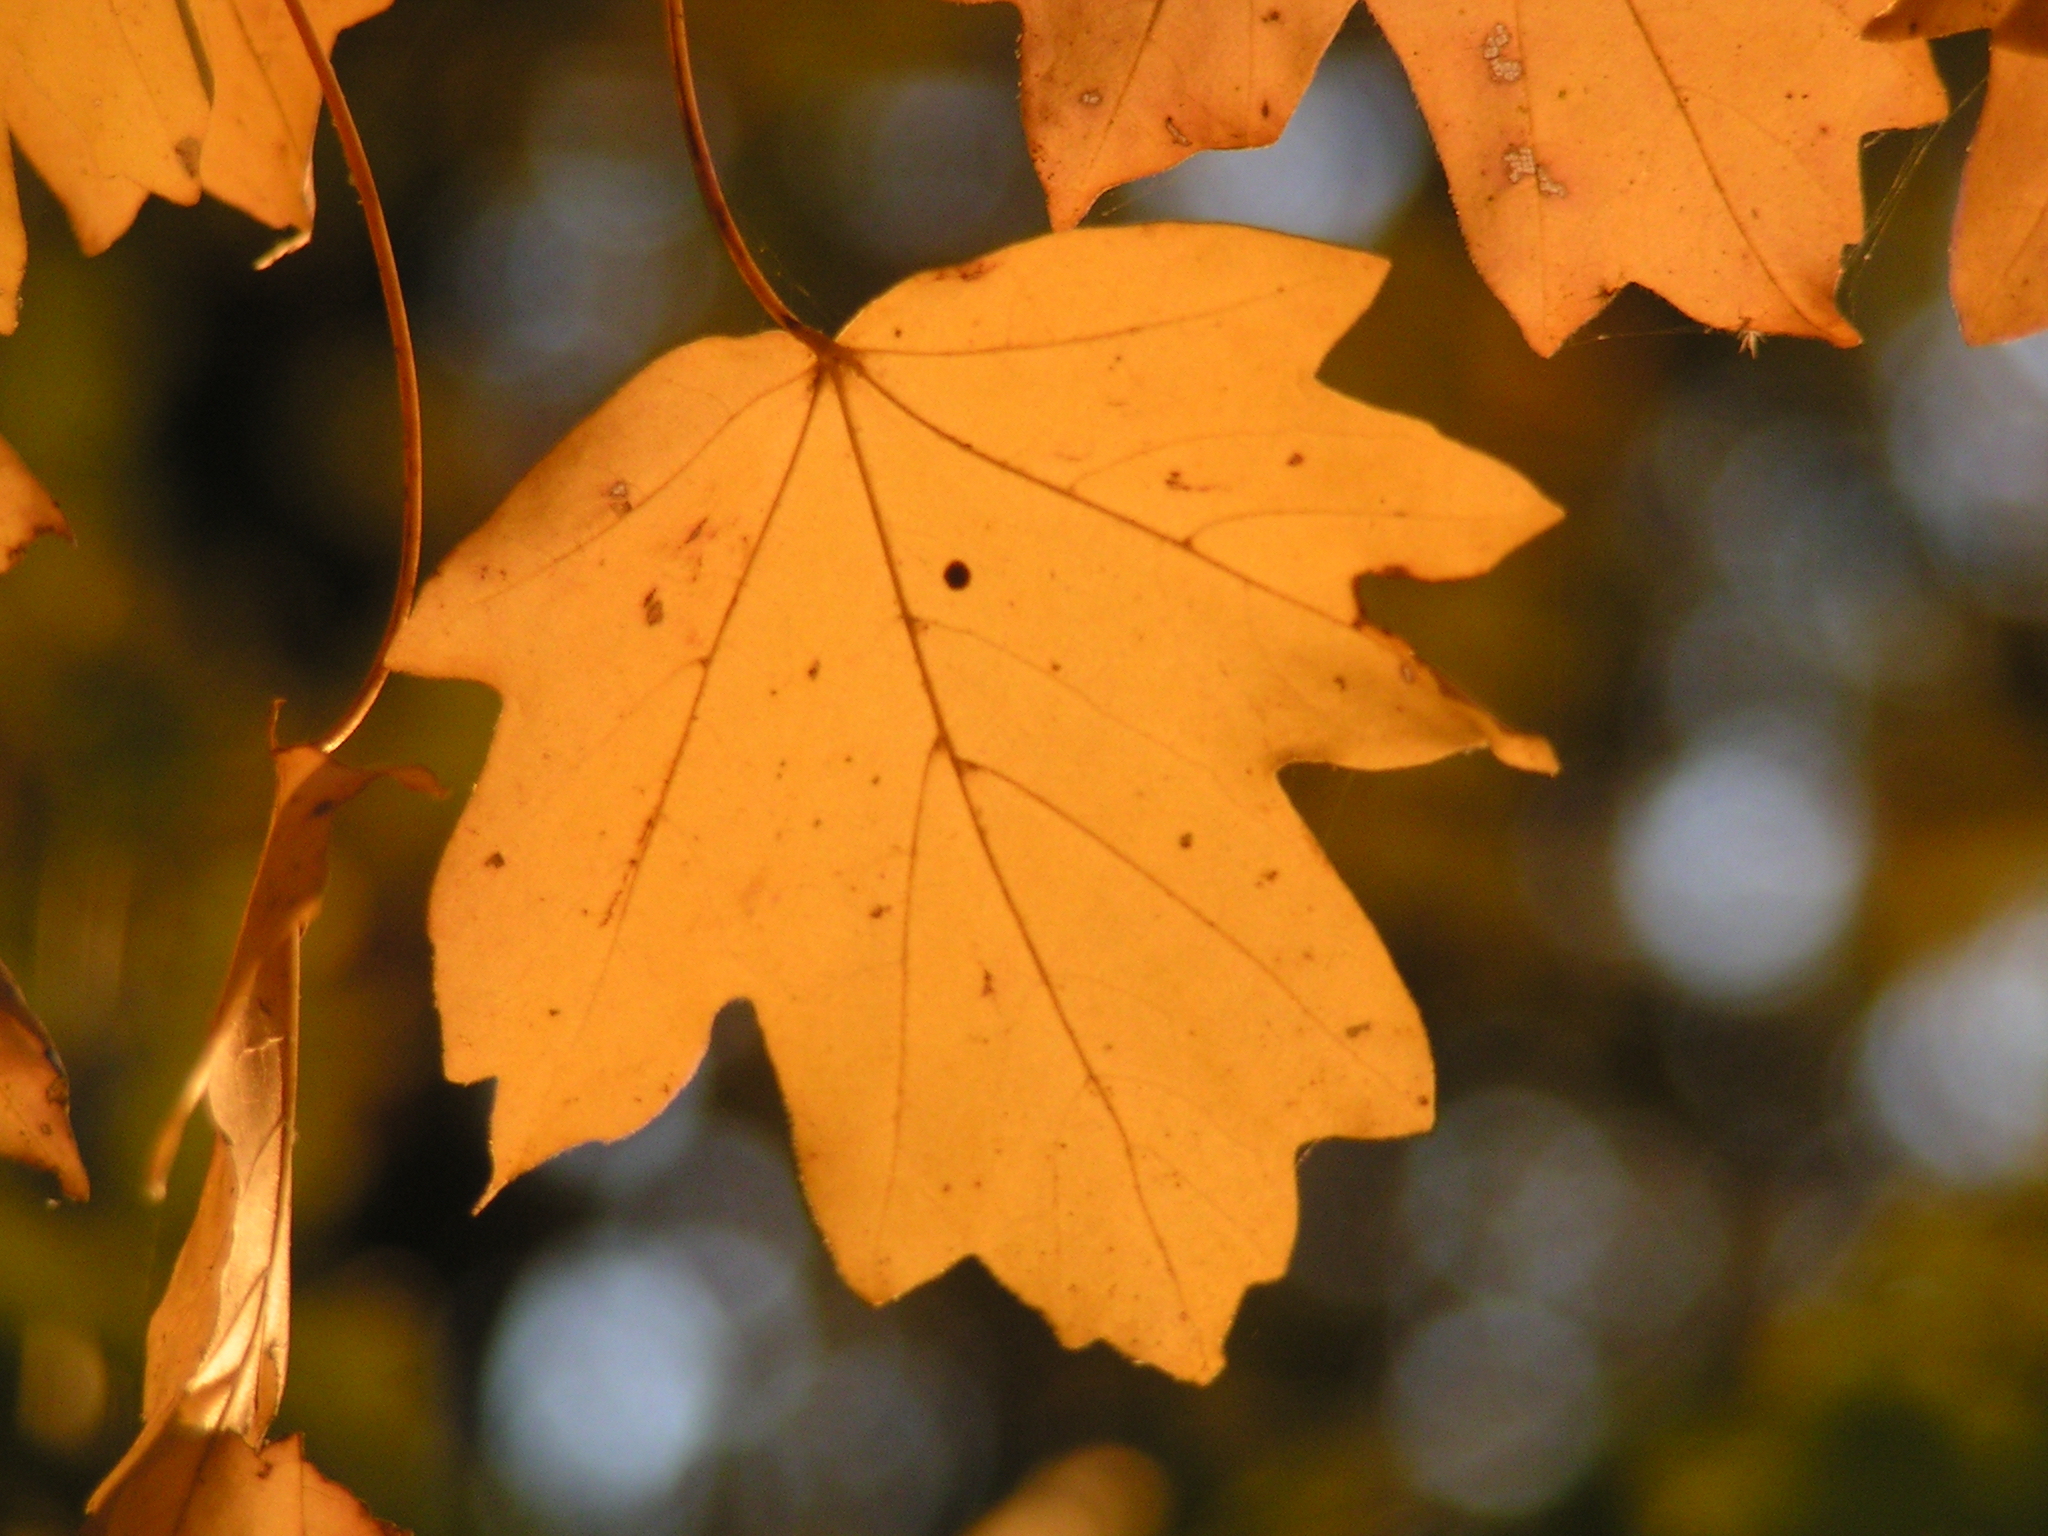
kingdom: Plantae
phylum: Tracheophyta
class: Magnoliopsida
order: Sapindales
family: Sapindaceae
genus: Acer
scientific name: Acer campestre
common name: Field maple
